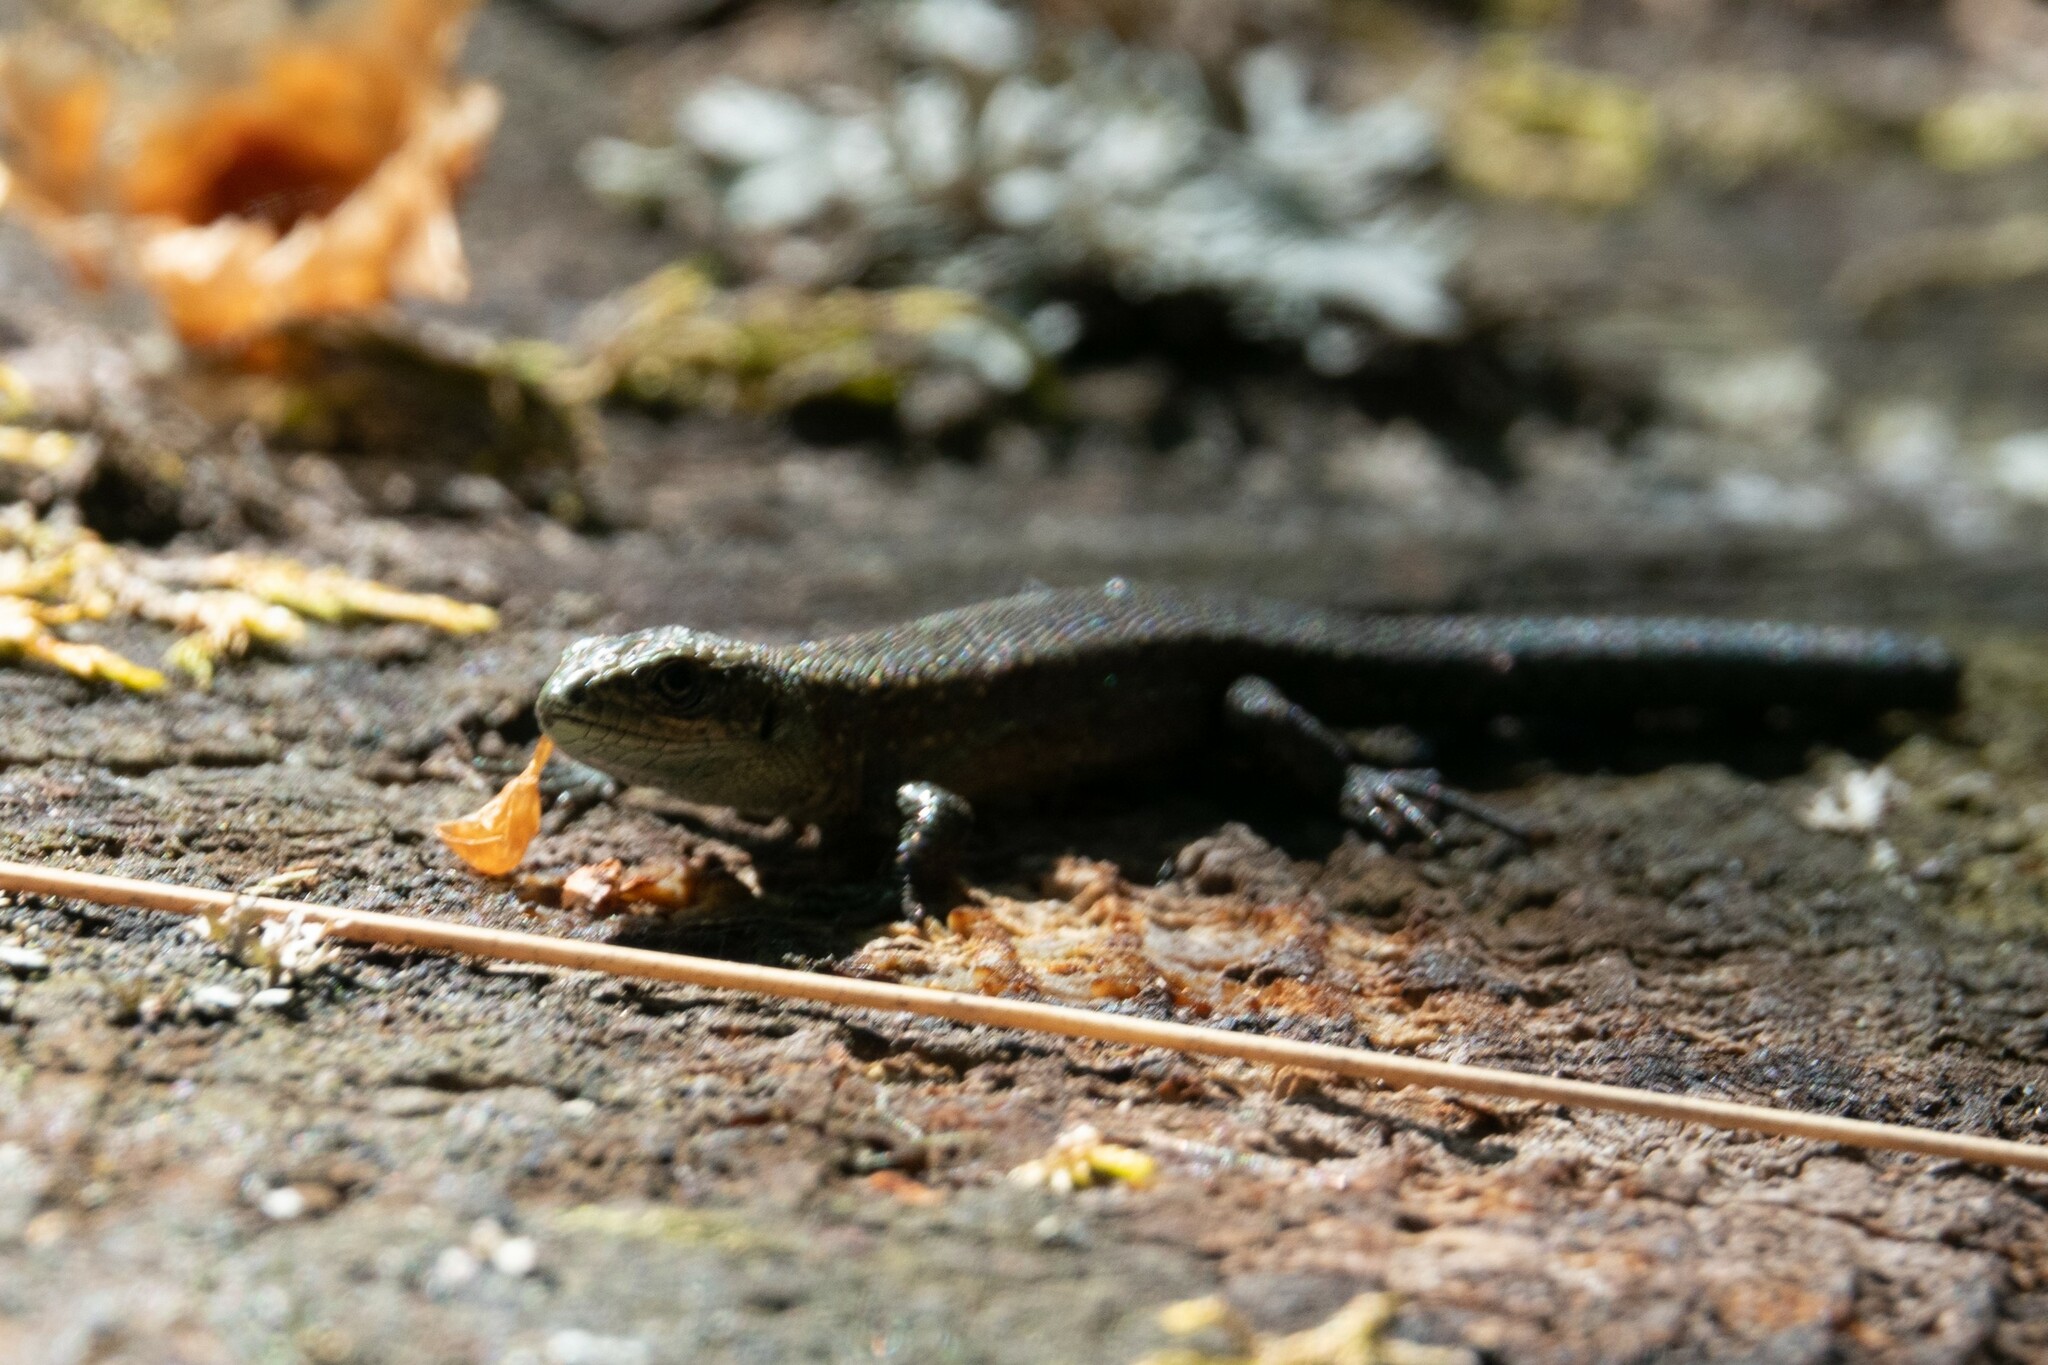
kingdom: Animalia
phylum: Chordata
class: Squamata
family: Lacertidae
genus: Zootoca
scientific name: Zootoca vivipara
